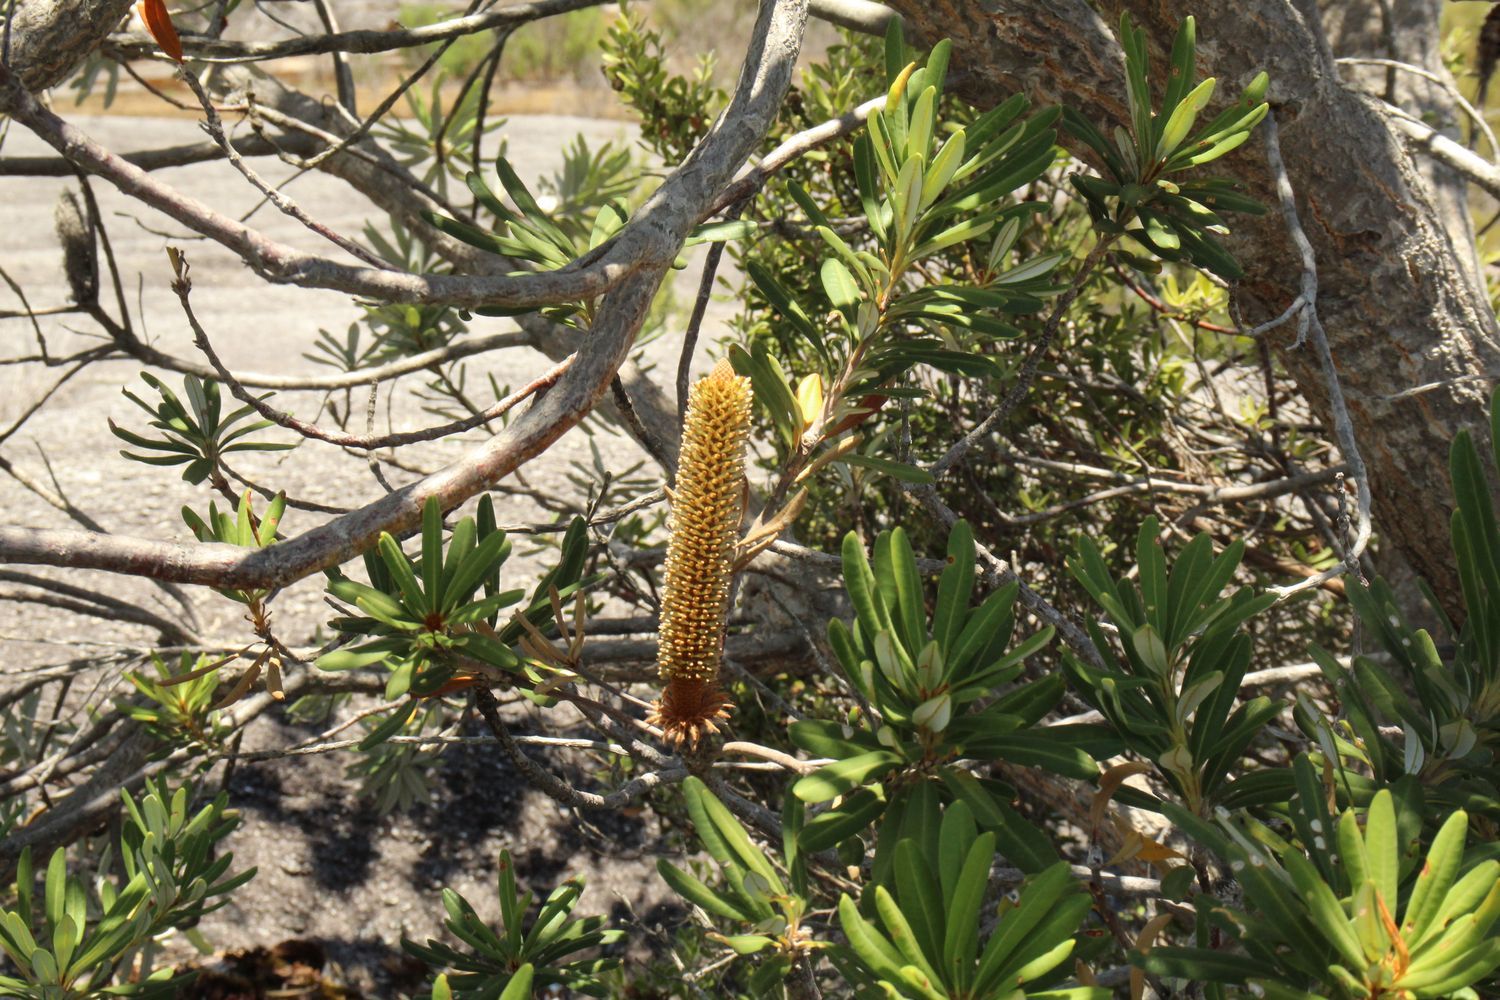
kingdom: Plantae
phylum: Tracheophyta
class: Magnoliopsida
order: Proteales
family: Proteaceae
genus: Banksia
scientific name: Banksia verticiliata
